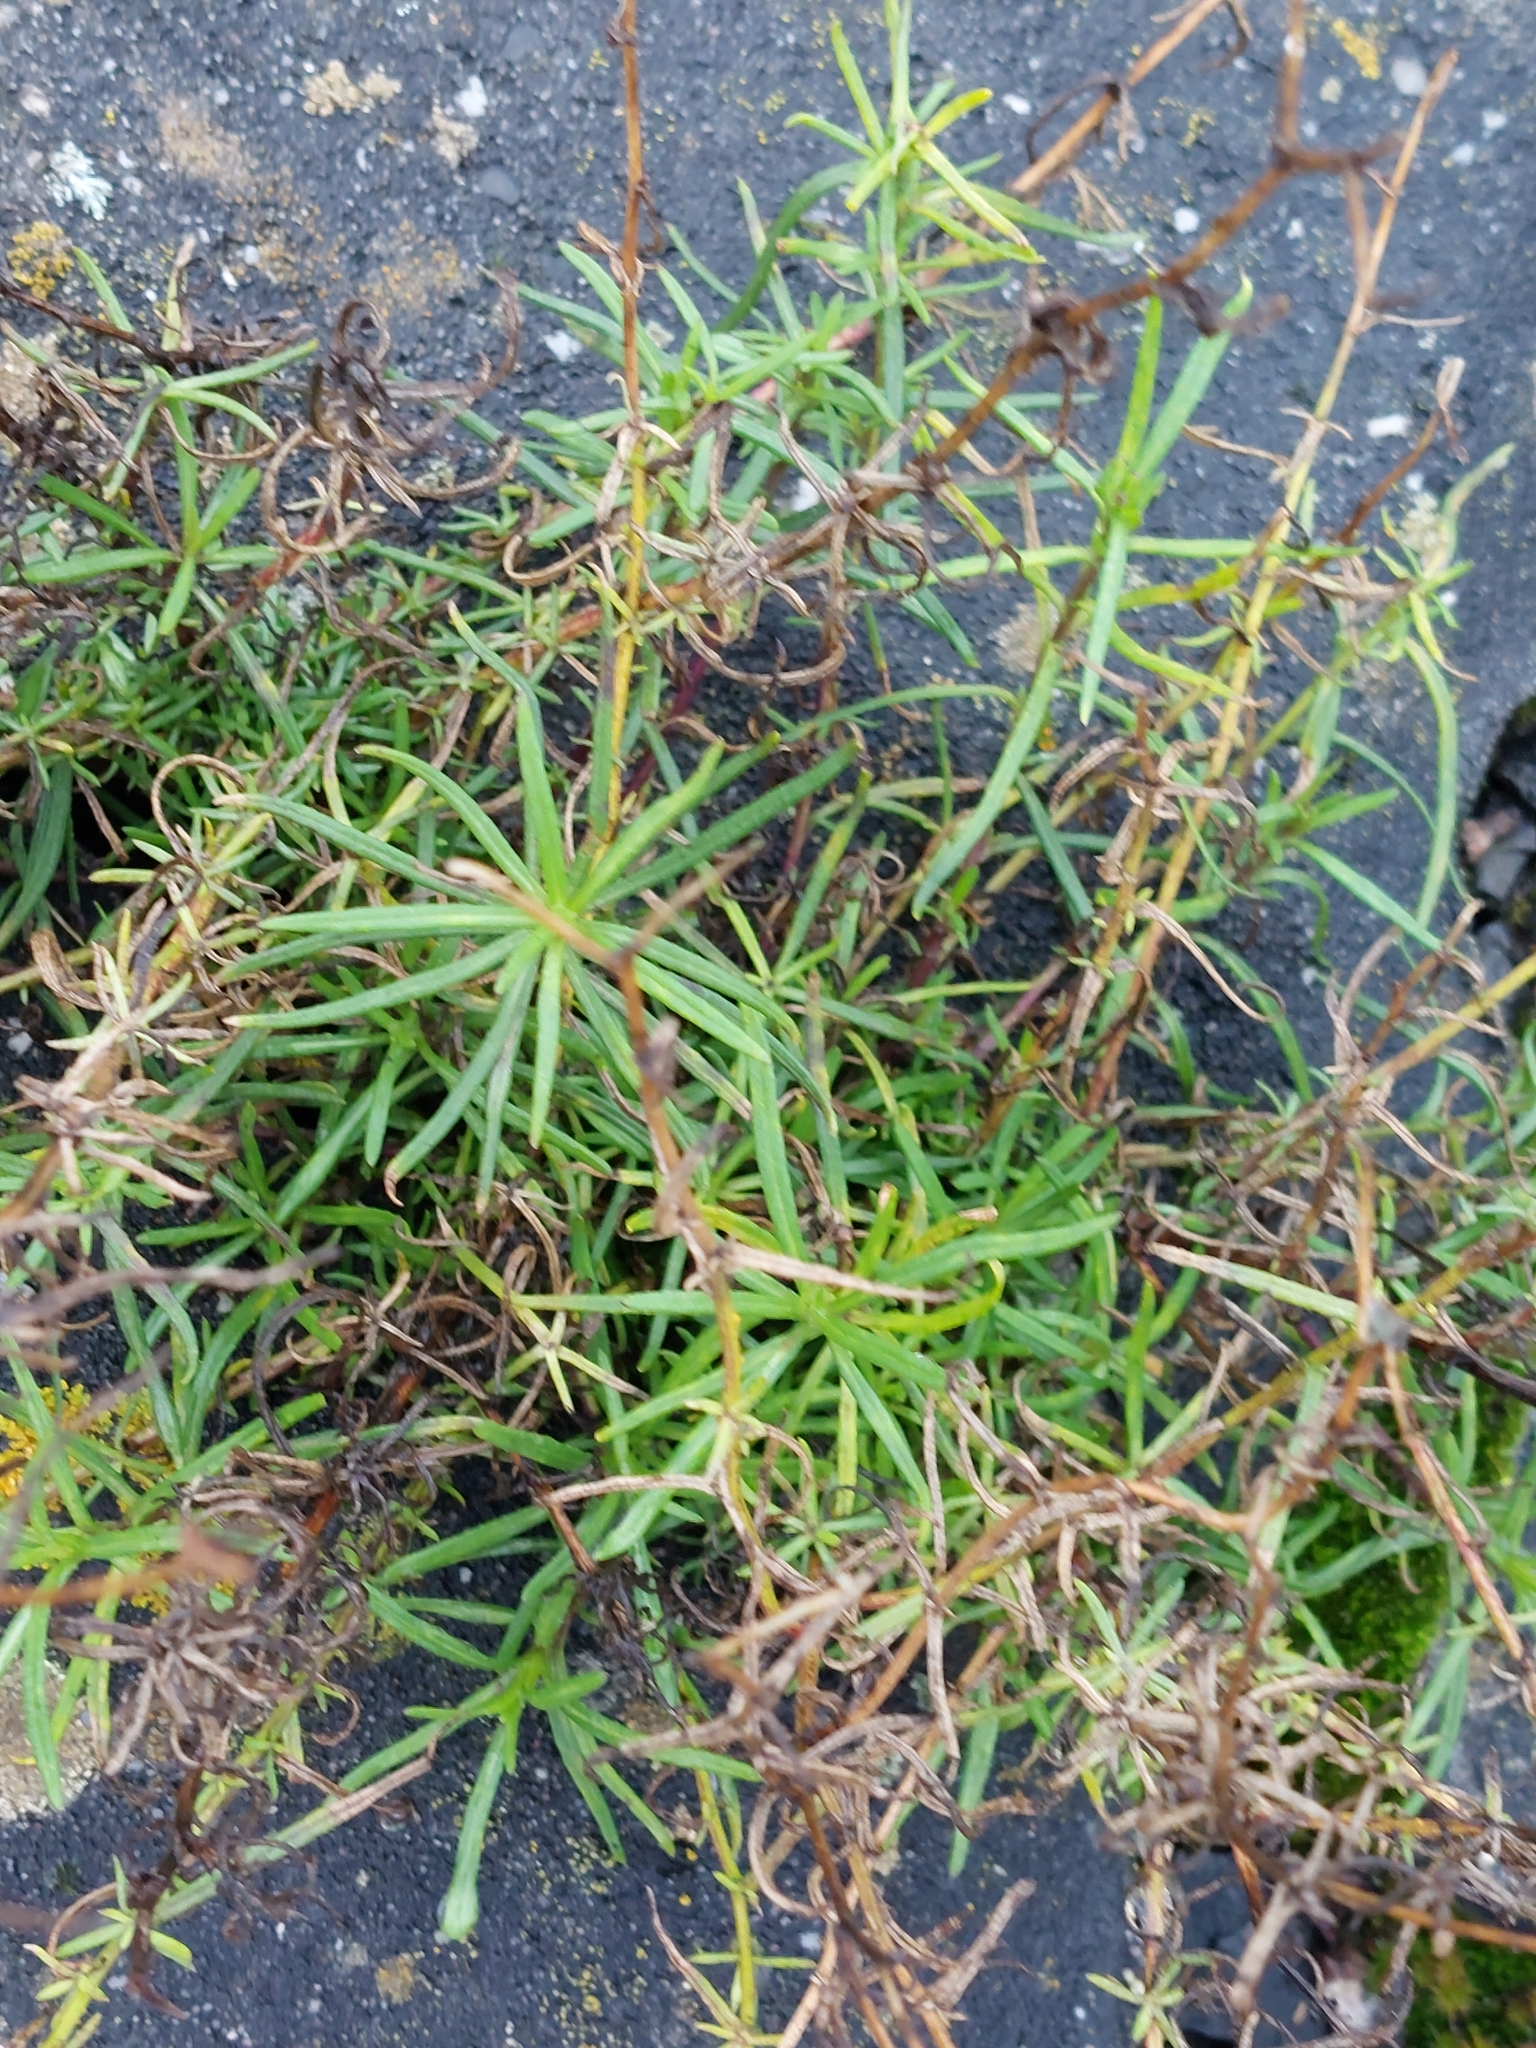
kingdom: Plantae
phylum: Tracheophyta
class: Magnoliopsida
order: Asterales
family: Asteraceae
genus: Senecio
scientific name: Senecio inaequidens
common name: Narrow-leaved ragwort
